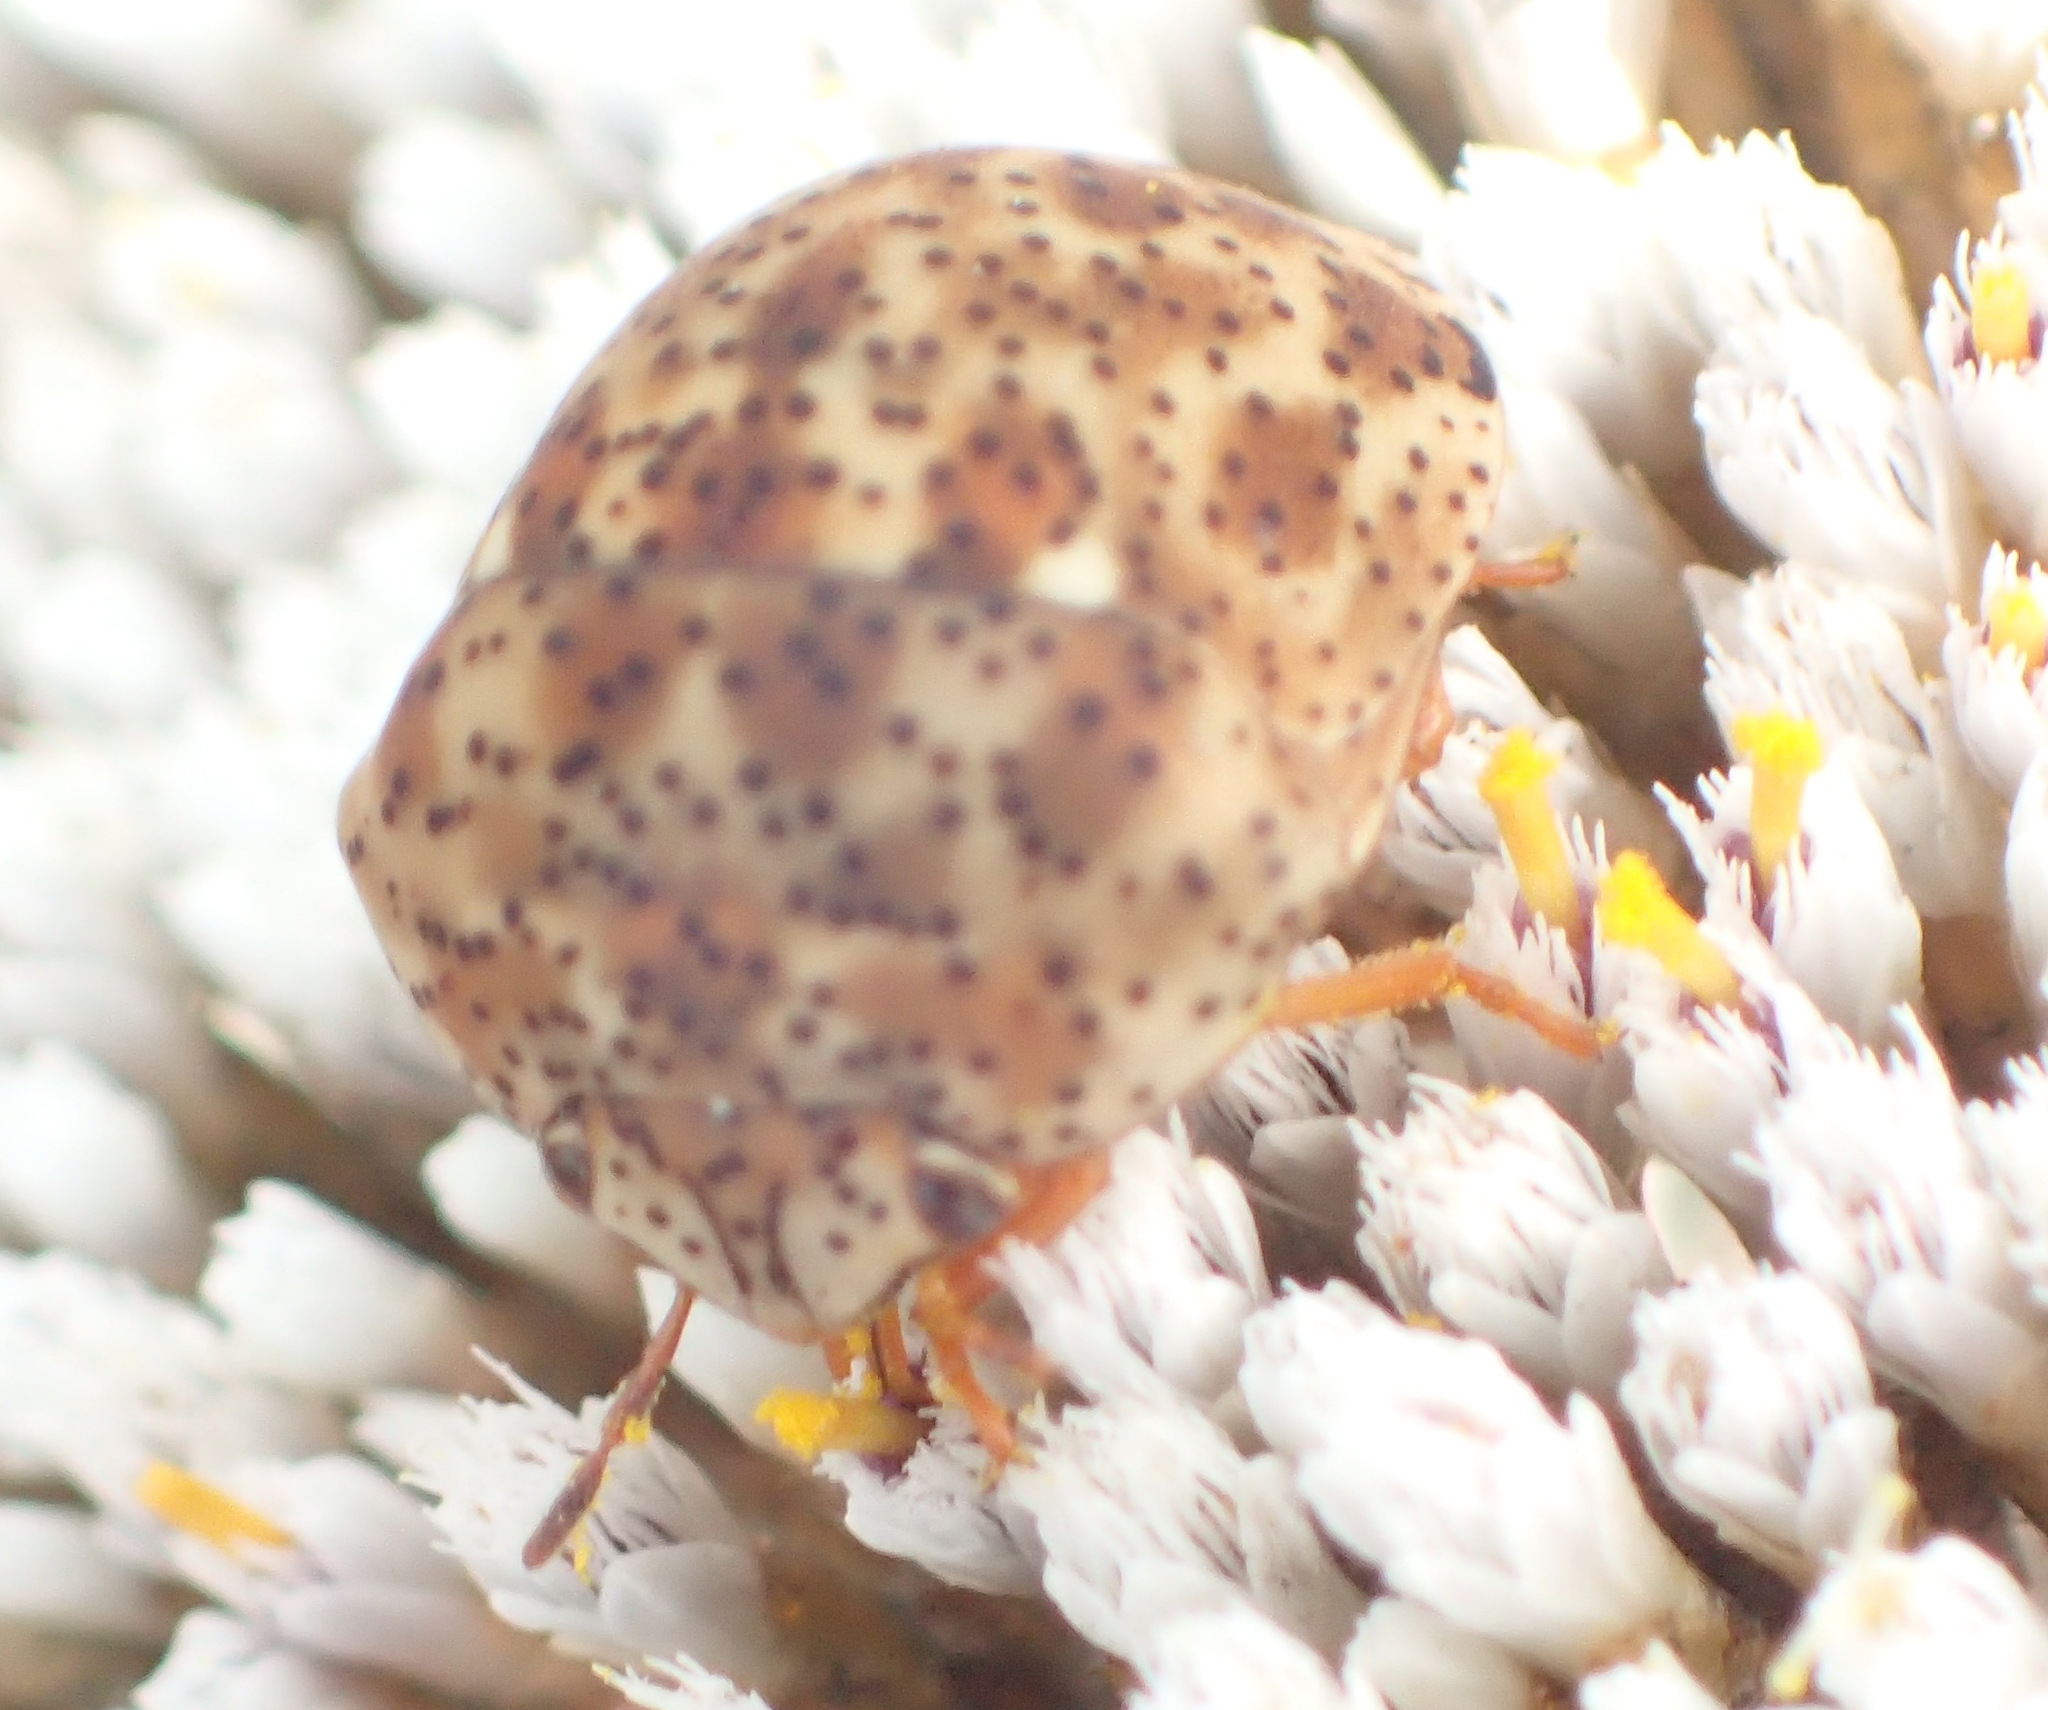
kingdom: Animalia
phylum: Arthropoda
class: Insecta
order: Hemiptera
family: Scutelleridae
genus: Sphaerocoris
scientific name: Sphaerocoris
